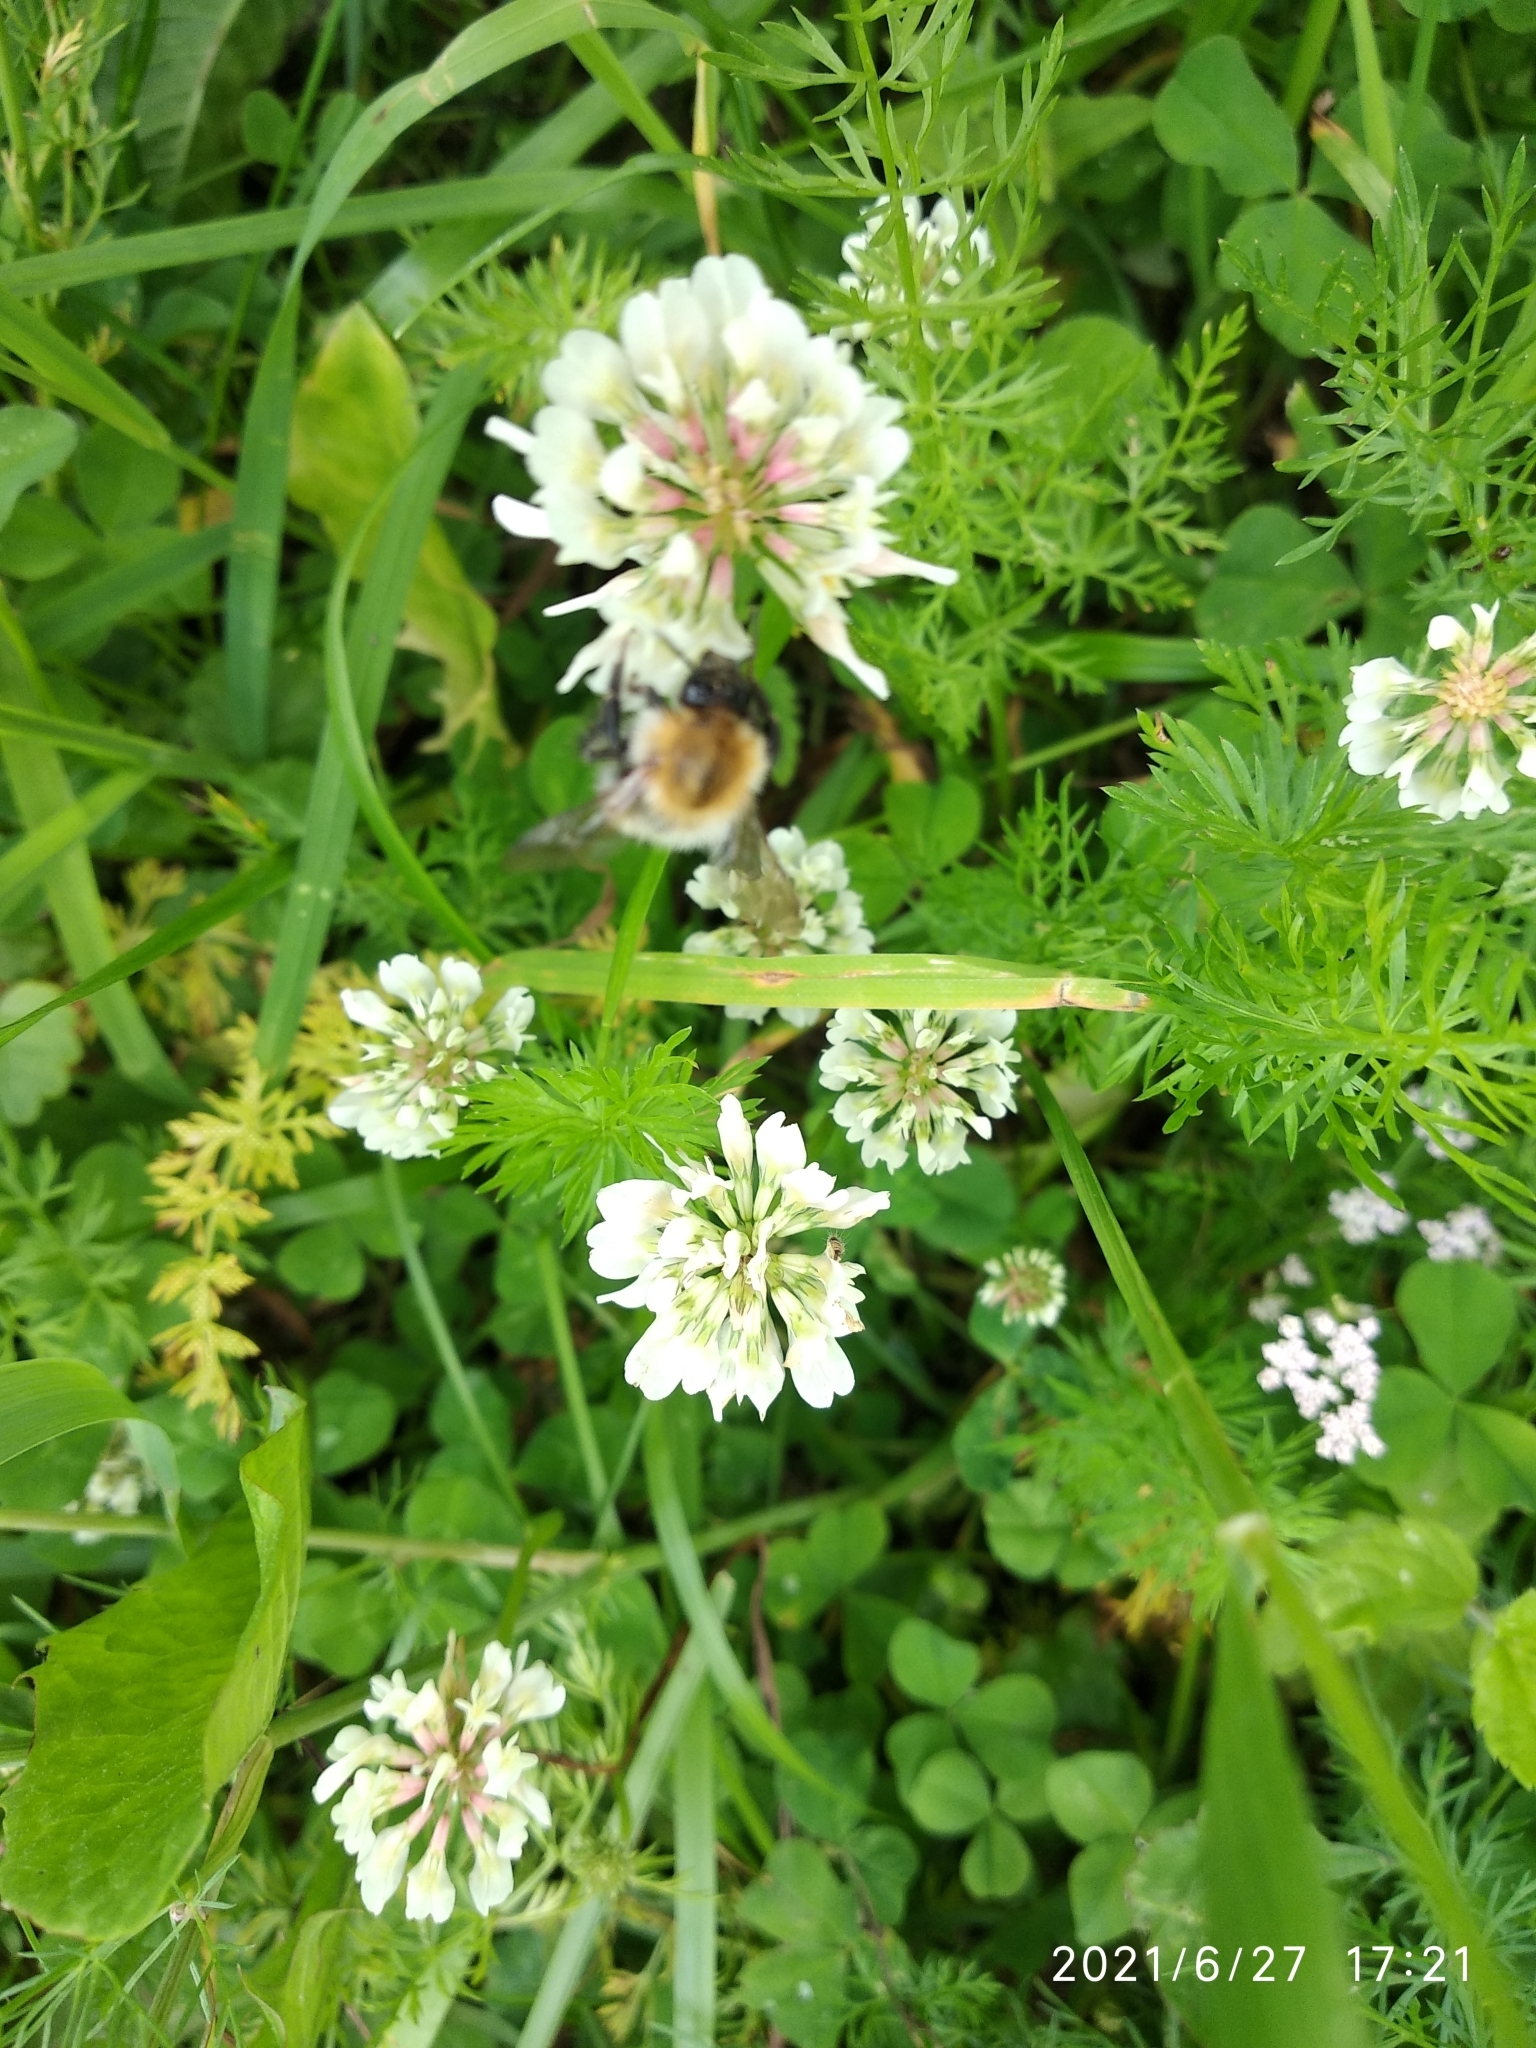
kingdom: Animalia
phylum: Arthropoda
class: Insecta
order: Hymenoptera
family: Apidae
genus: Bombus
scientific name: Bombus pascuorum
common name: Common carder bee
